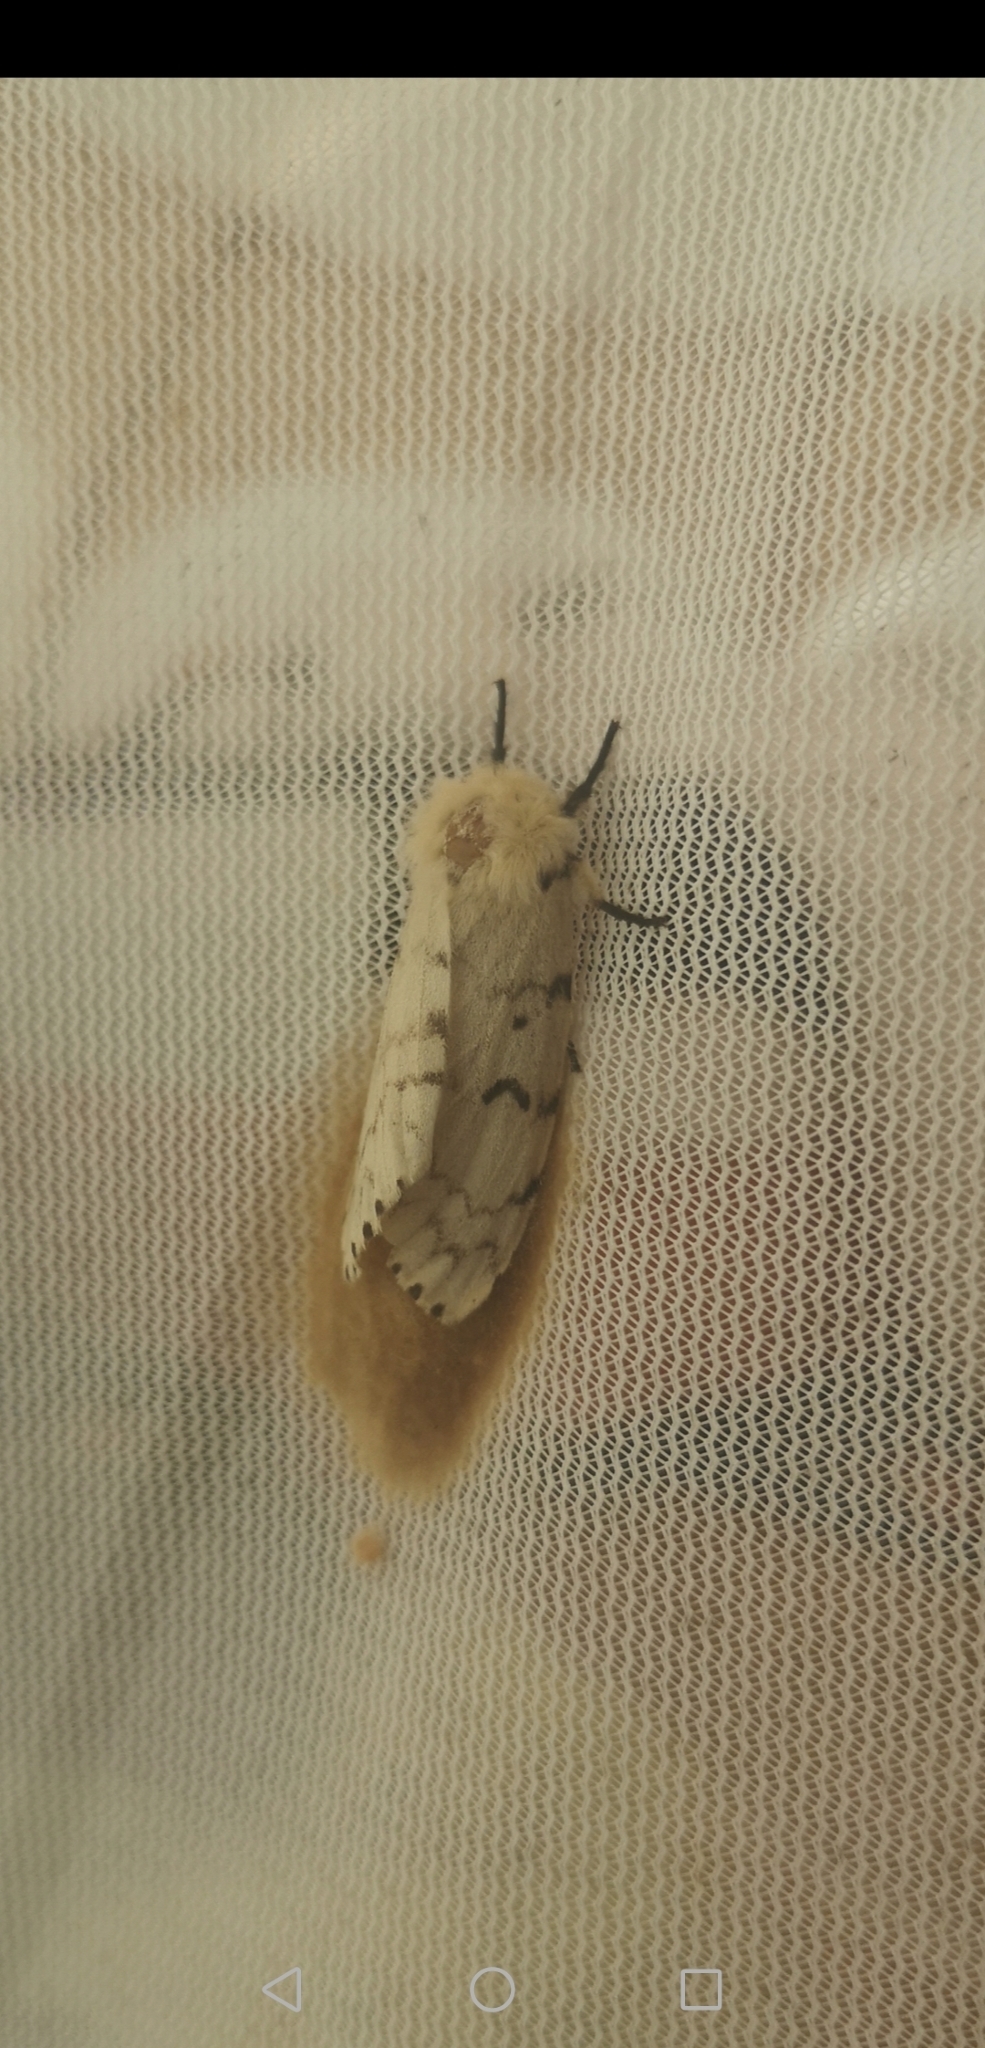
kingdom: Animalia
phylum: Arthropoda
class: Insecta
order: Lepidoptera
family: Erebidae
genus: Lymantria
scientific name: Lymantria dispar
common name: Gypsy moth
